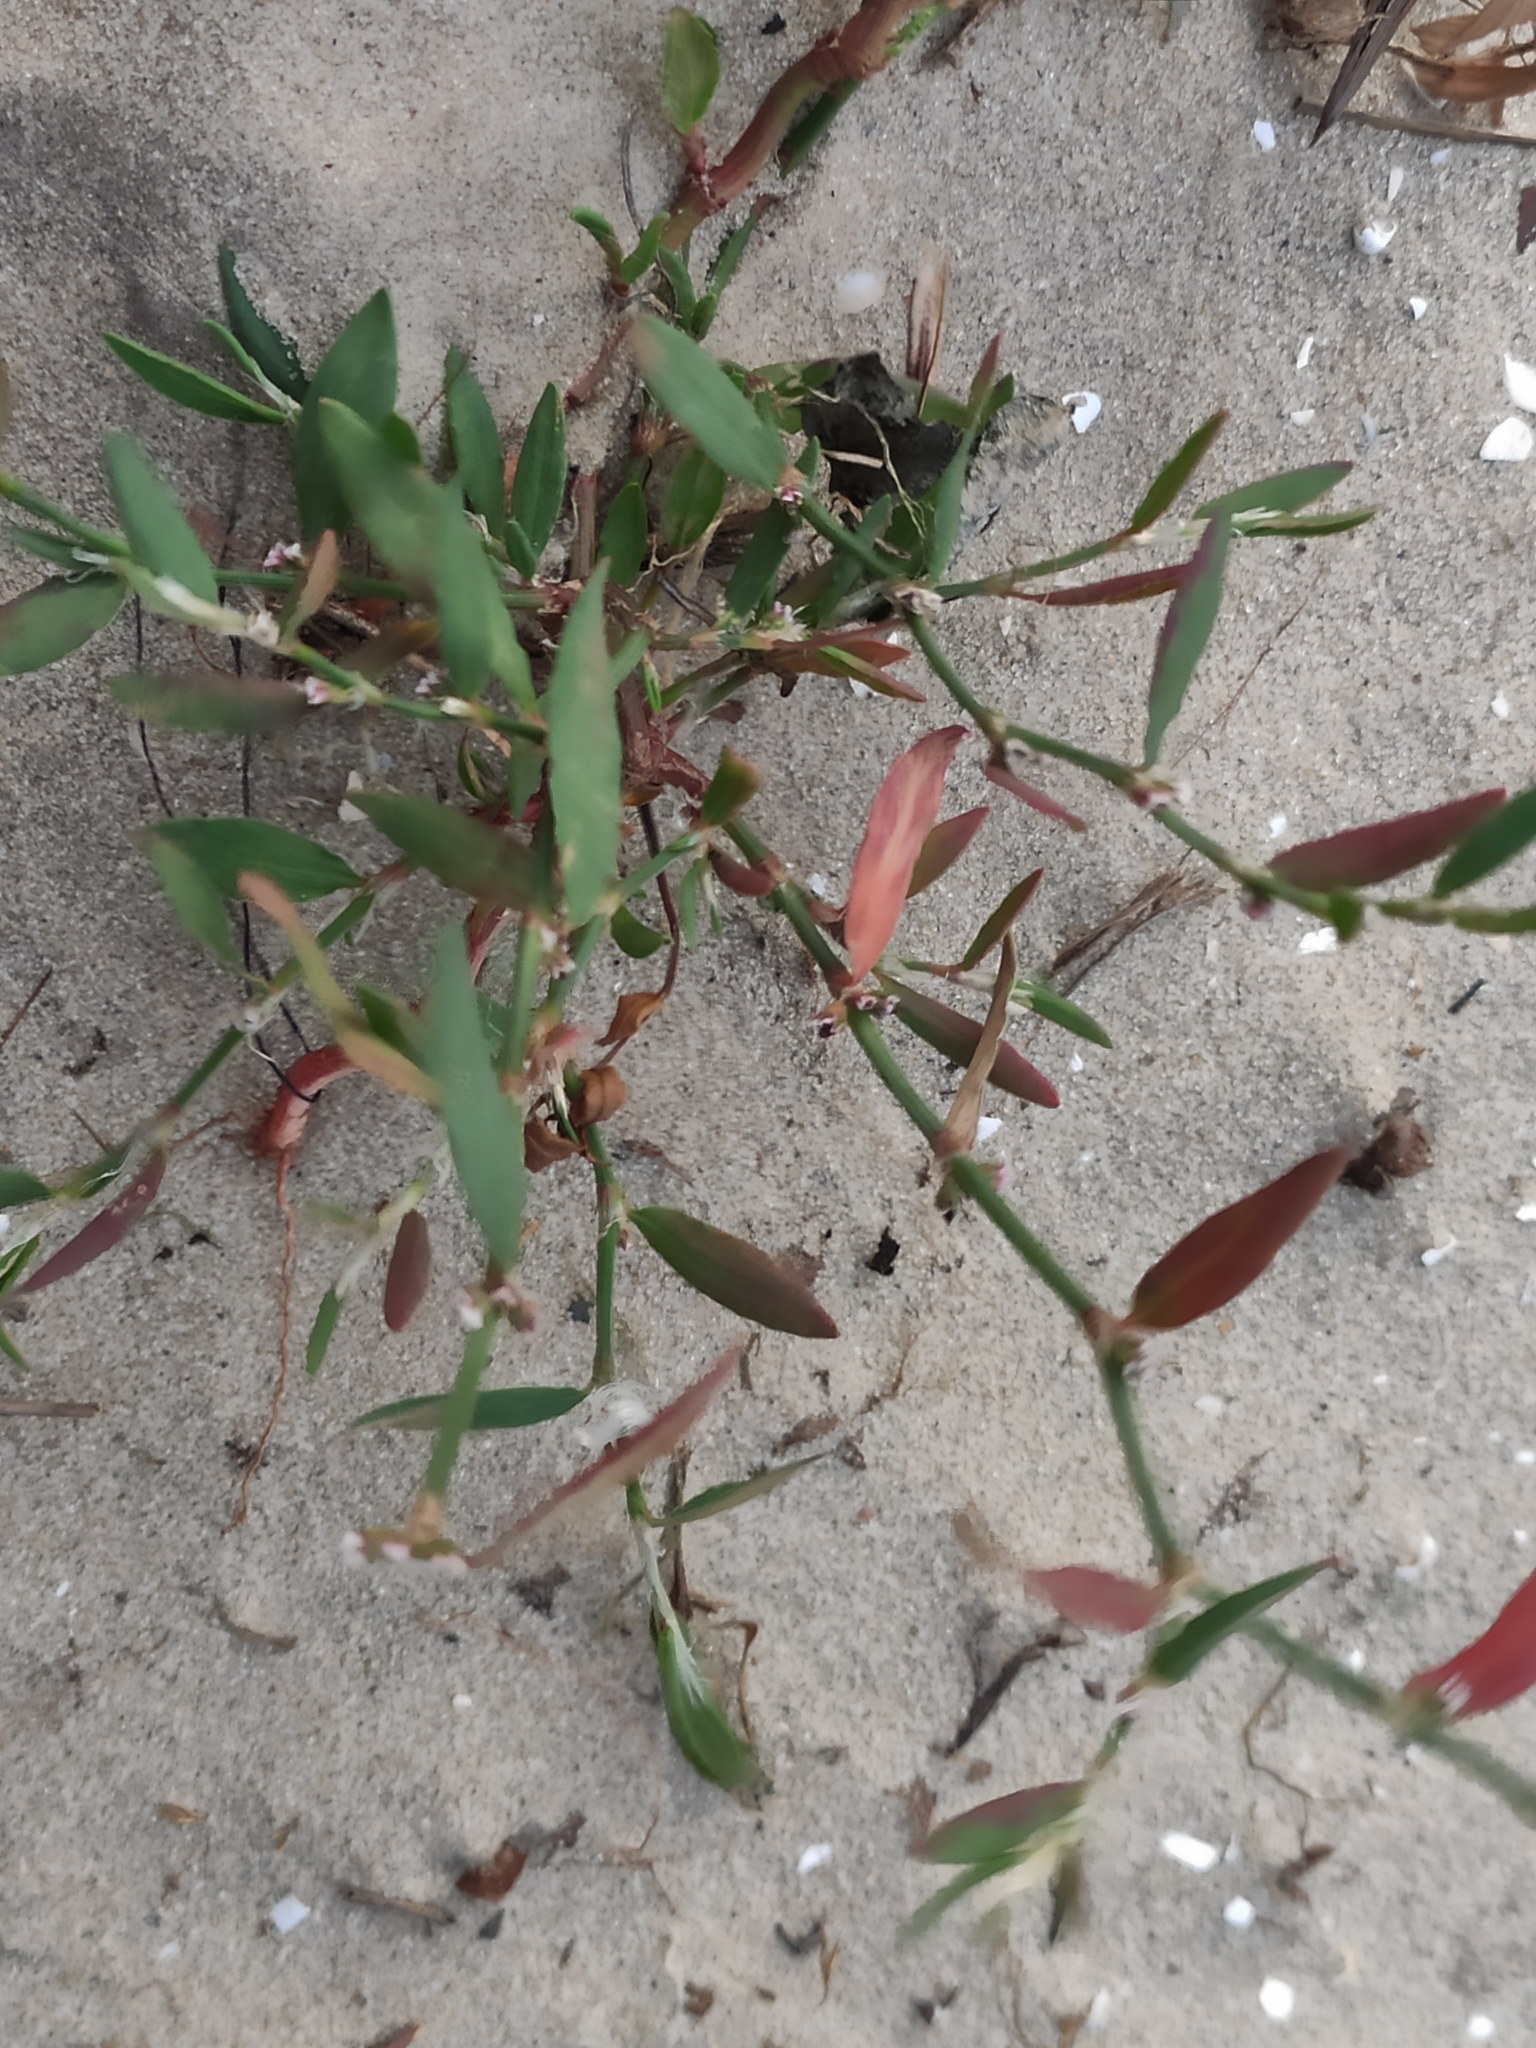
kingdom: Plantae
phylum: Tracheophyta
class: Magnoliopsida
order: Caryophyllales
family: Polygonaceae
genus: Polygonum
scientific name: Polygonum aviculare
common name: Prostrate knotweed
